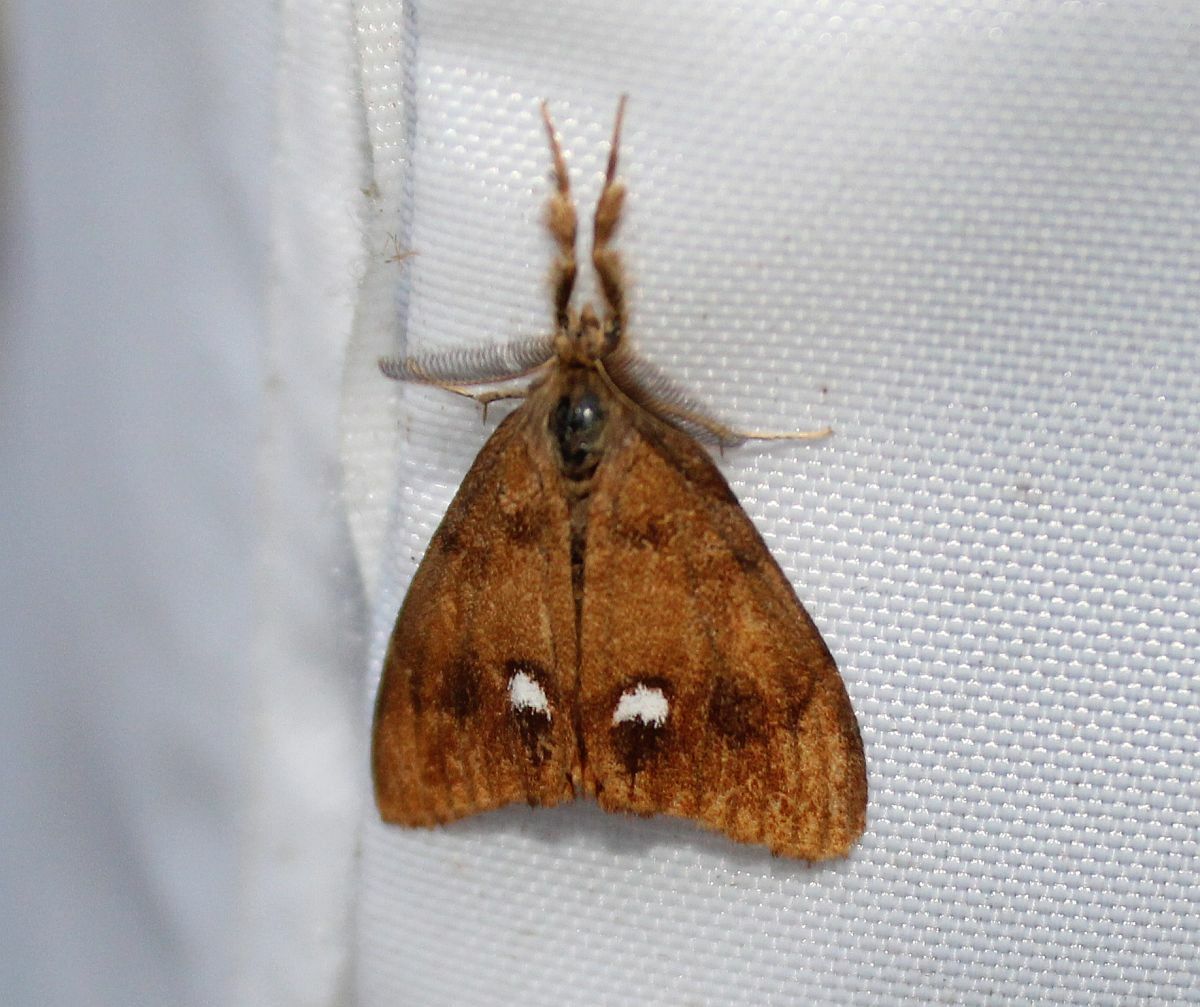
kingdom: Animalia
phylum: Arthropoda
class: Insecta
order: Lepidoptera
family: Erebidae
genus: Orgyia
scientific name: Orgyia antiqua
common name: Vapourer
